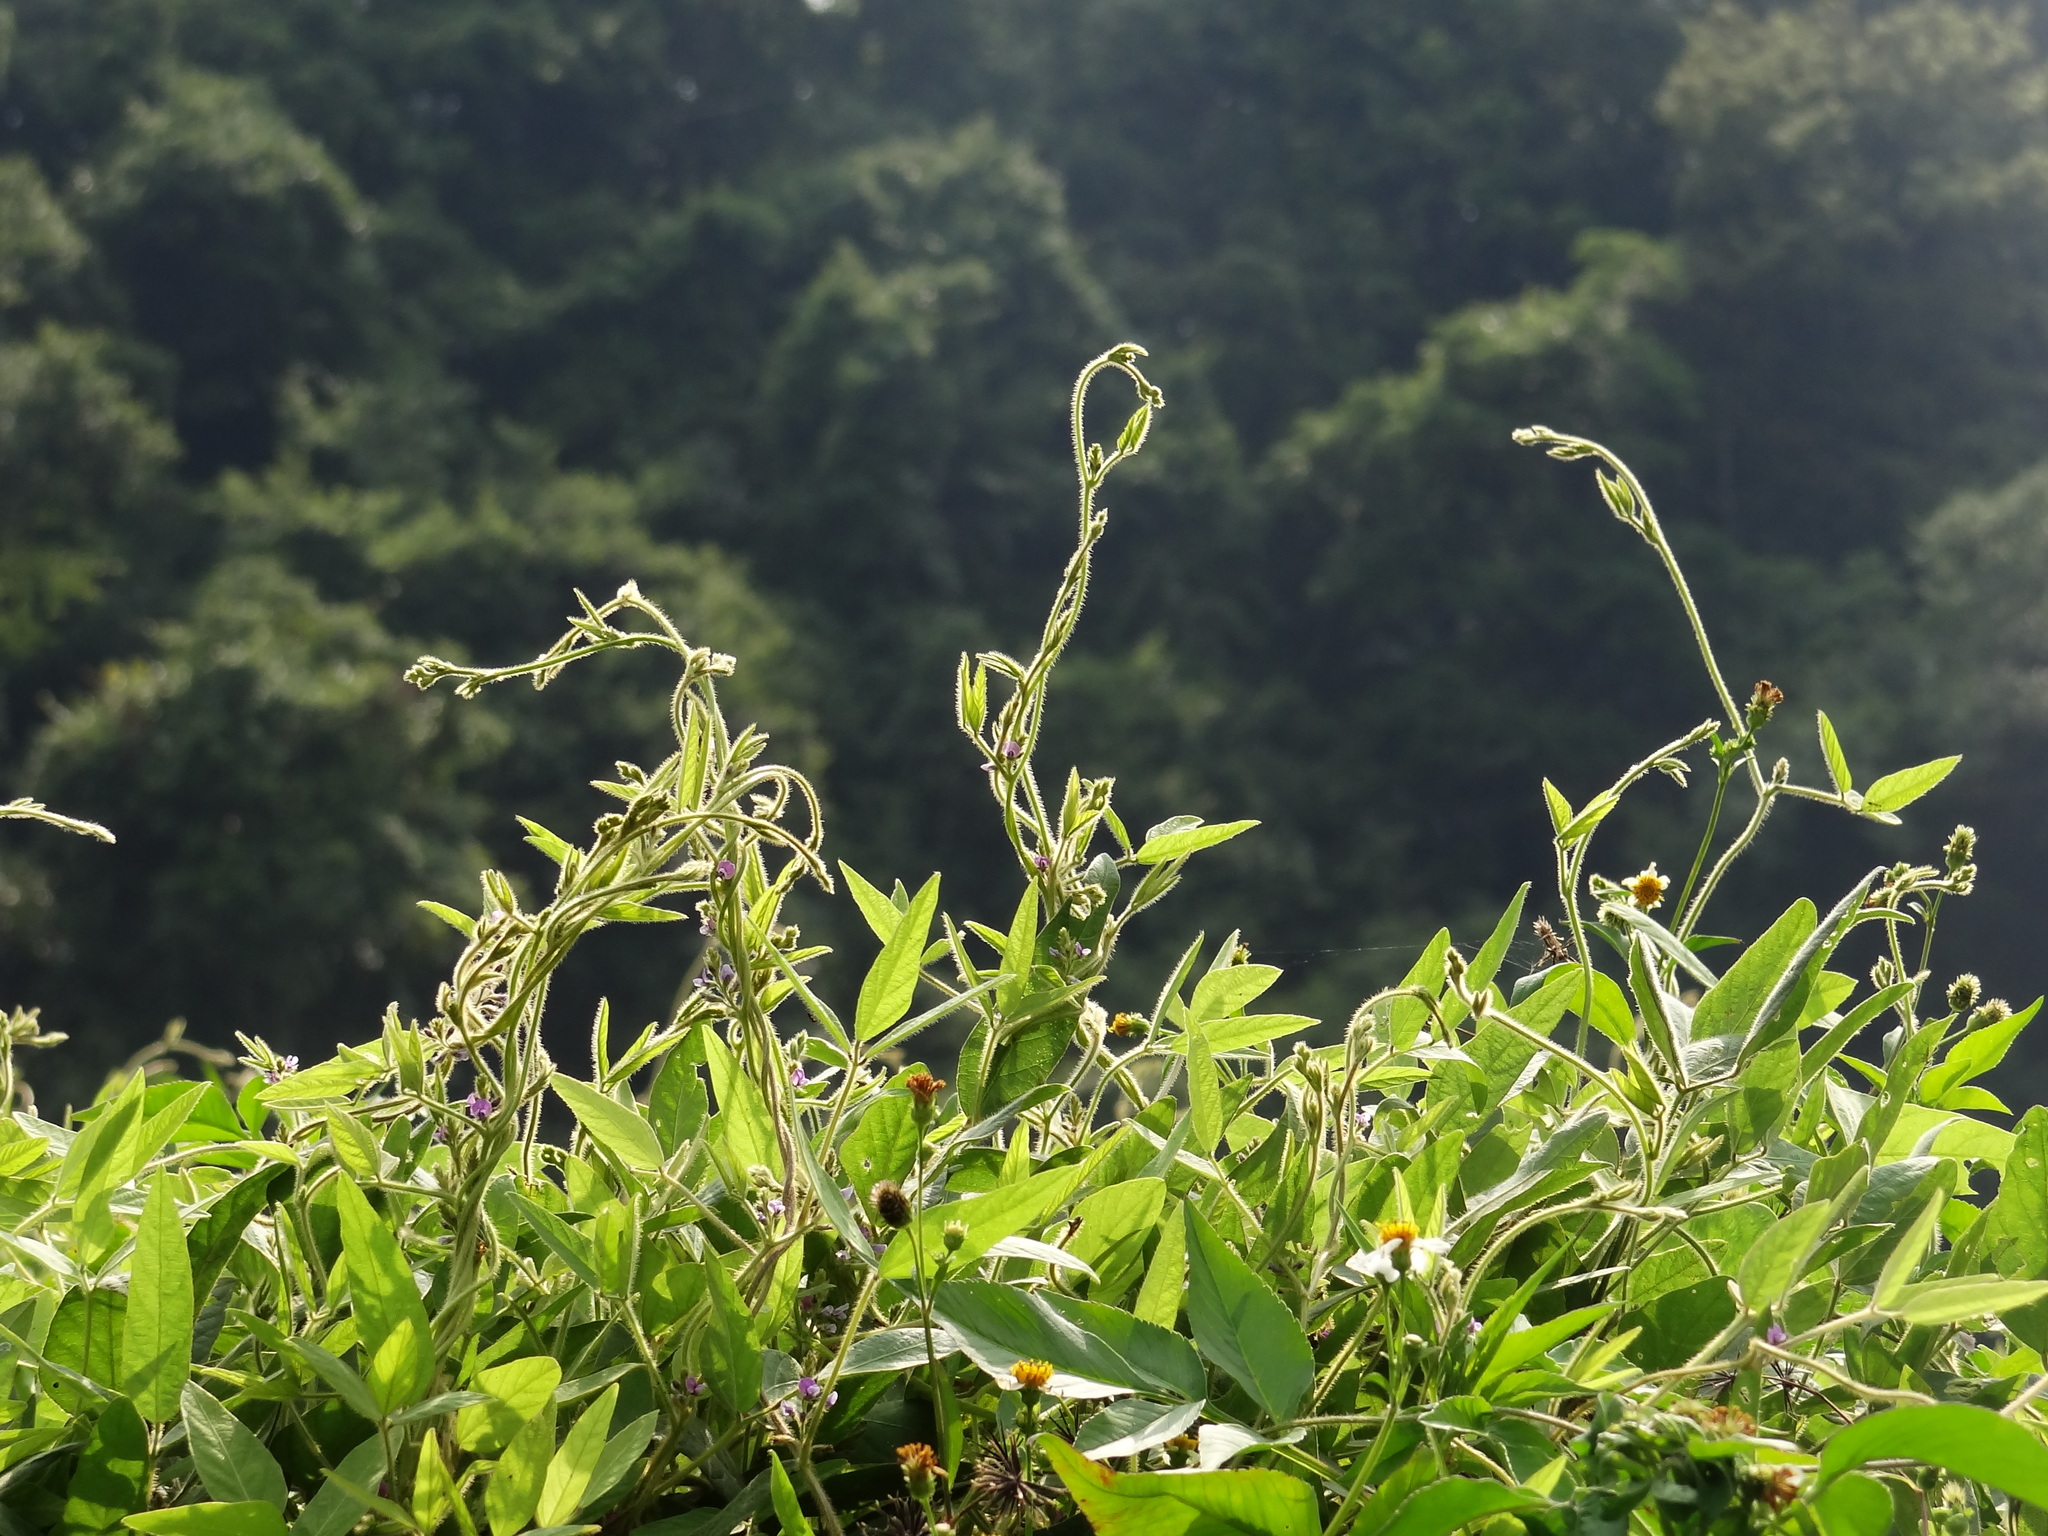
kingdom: Plantae
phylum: Tracheophyta
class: Magnoliopsida
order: Fabales
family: Fabaceae
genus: Glycine
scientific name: Glycine max
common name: Soya-bean
